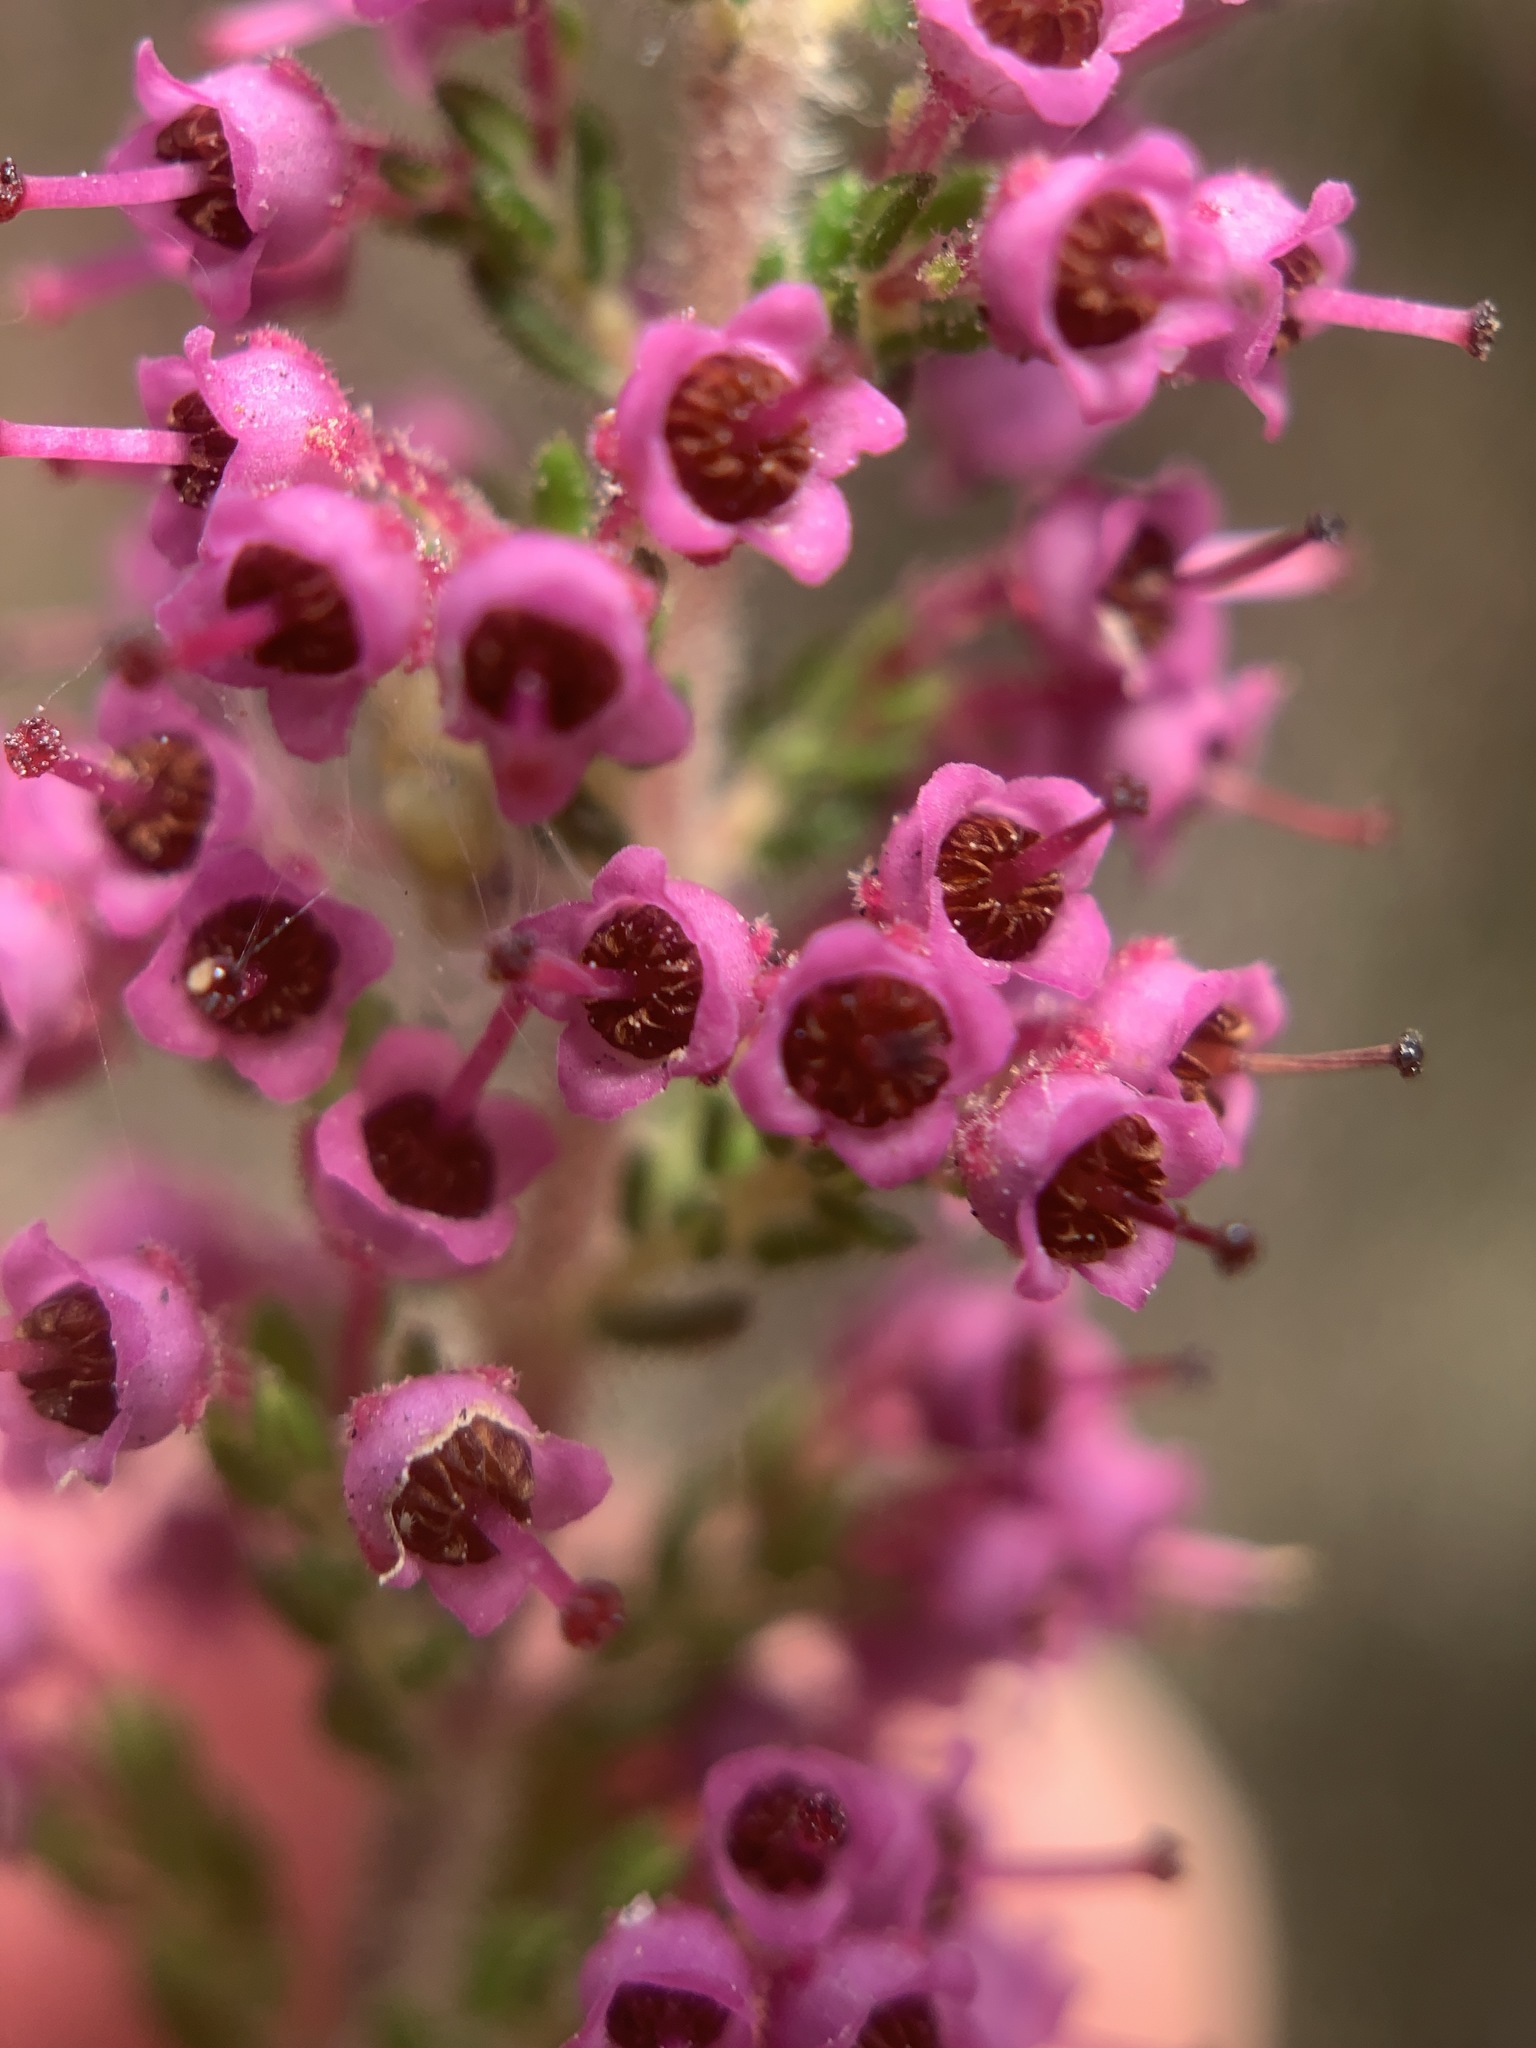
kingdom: Plantae
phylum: Tracheophyta
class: Magnoliopsida
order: Ericales
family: Ericaceae
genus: Erica
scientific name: Erica copiosa
